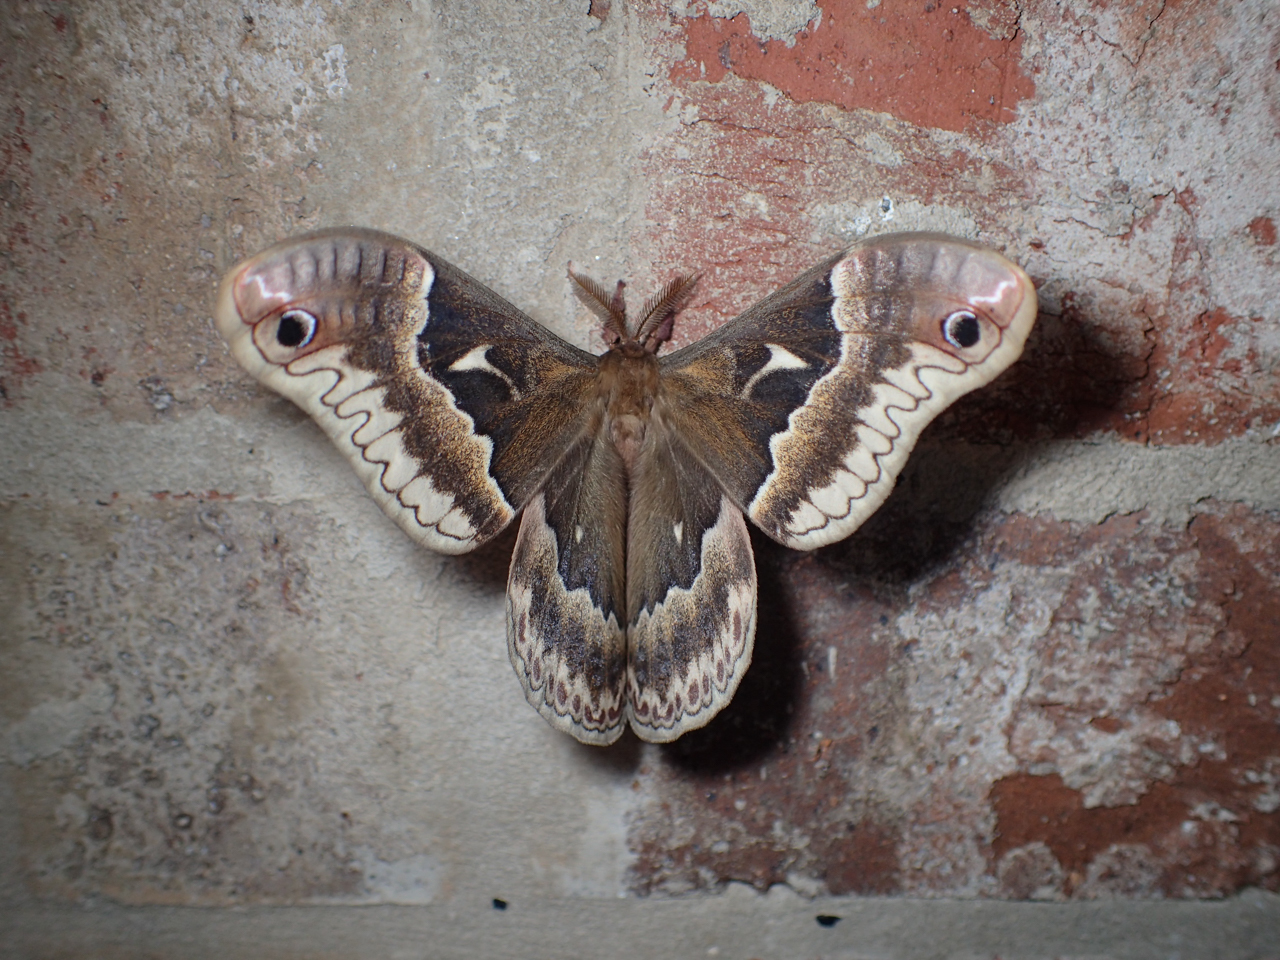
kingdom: Animalia
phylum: Arthropoda
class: Insecta
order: Lepidoptera
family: Saturniidae
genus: Callosamia
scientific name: Callosamia angulifera
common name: Tulip tree silkmoth
